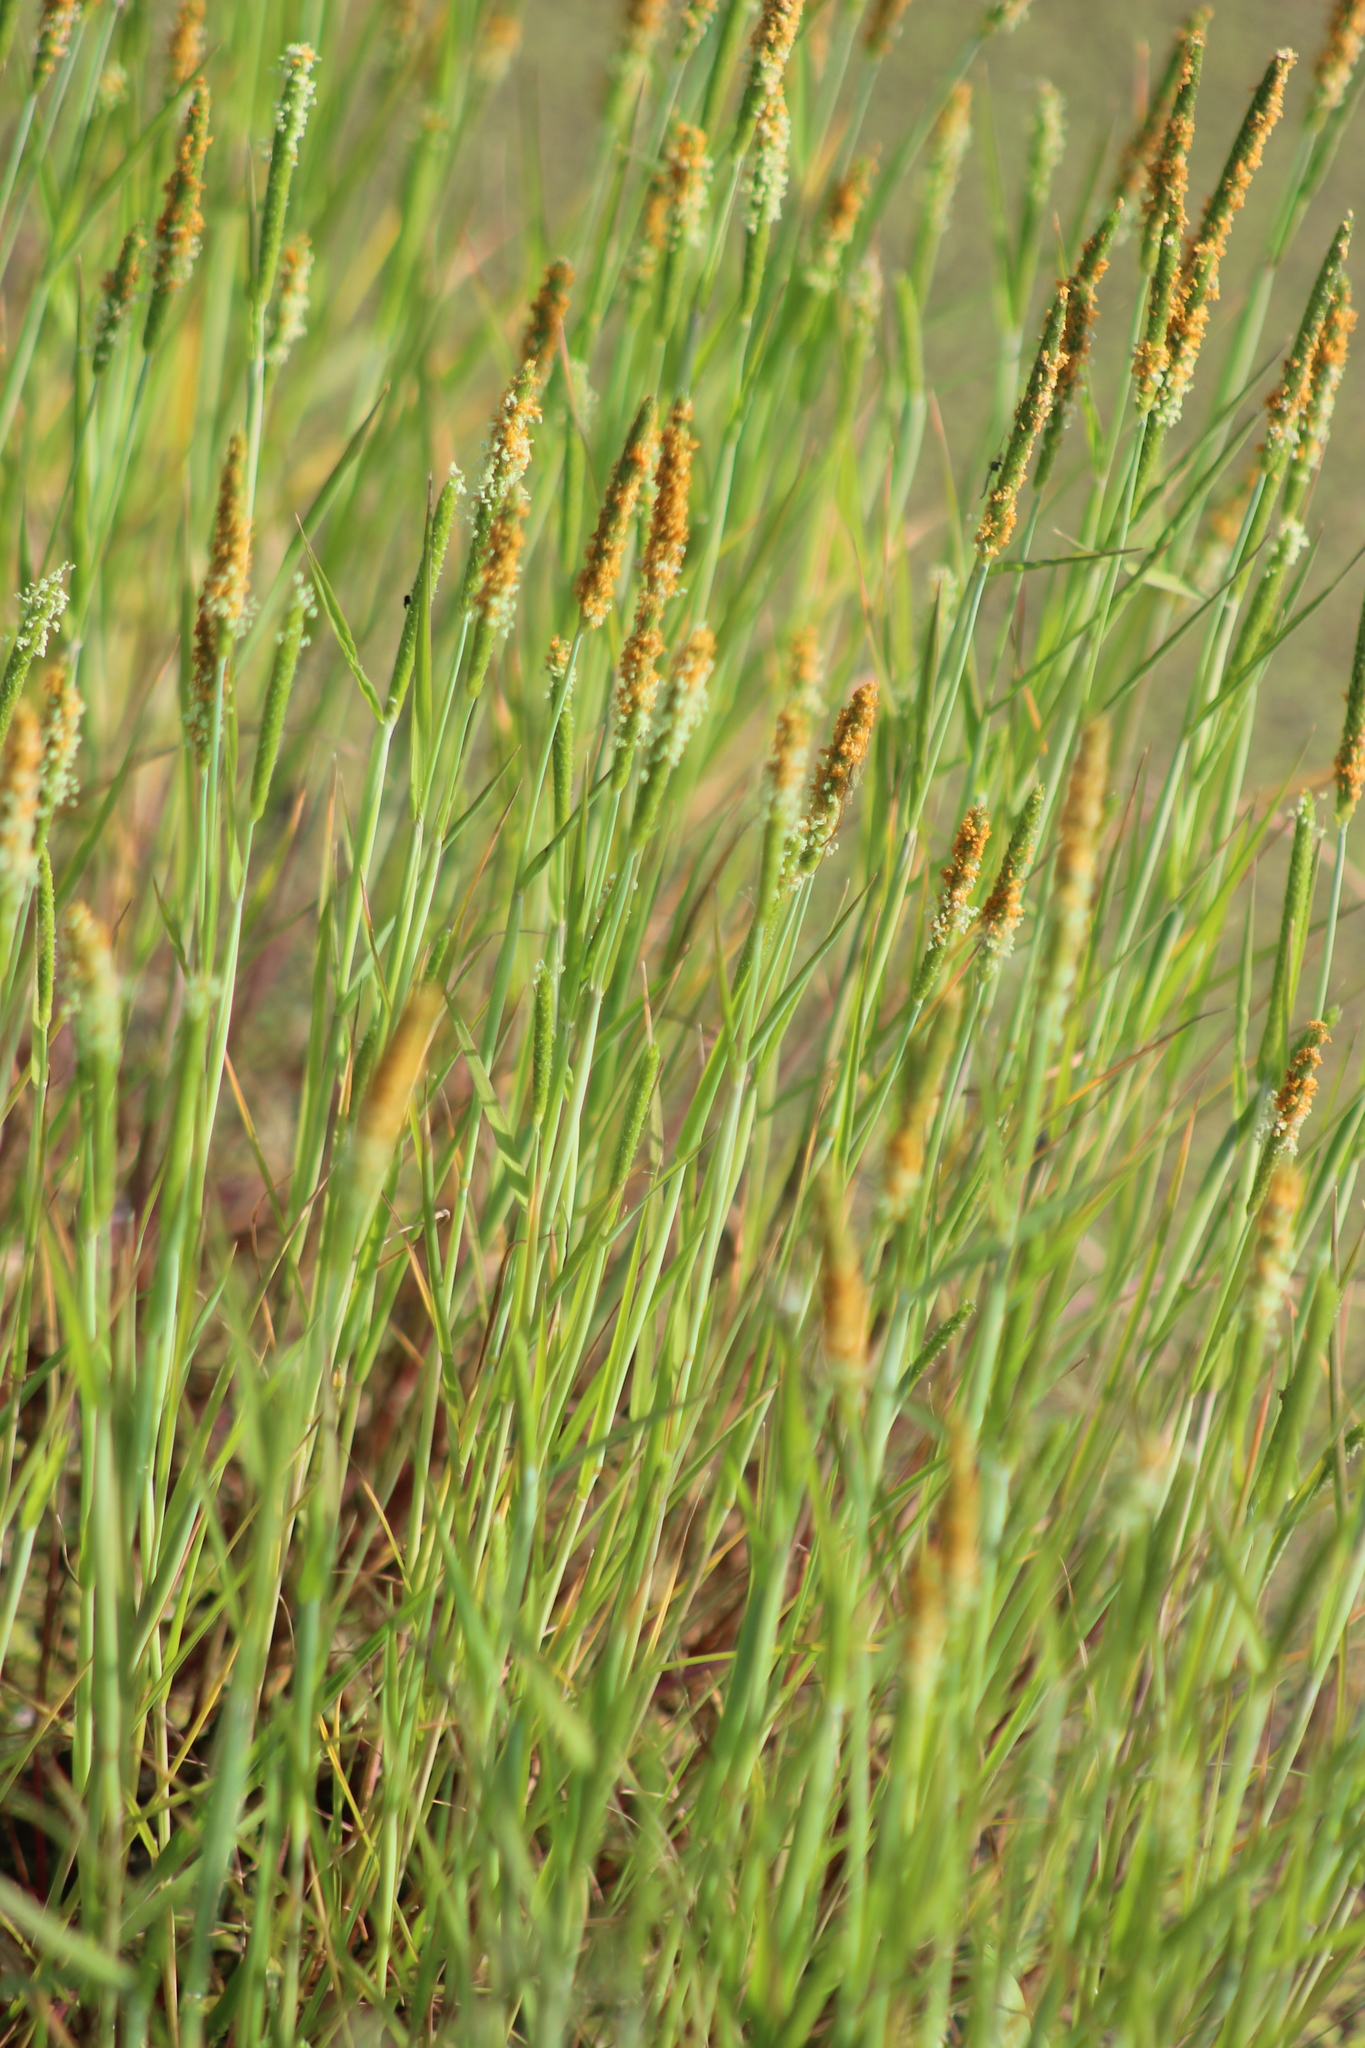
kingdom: Plantae
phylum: Tracheophyta
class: Liliopsida
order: Poales
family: Poaceae
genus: Alopecurus
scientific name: Alopecurus aequalis
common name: Orange foxtail
